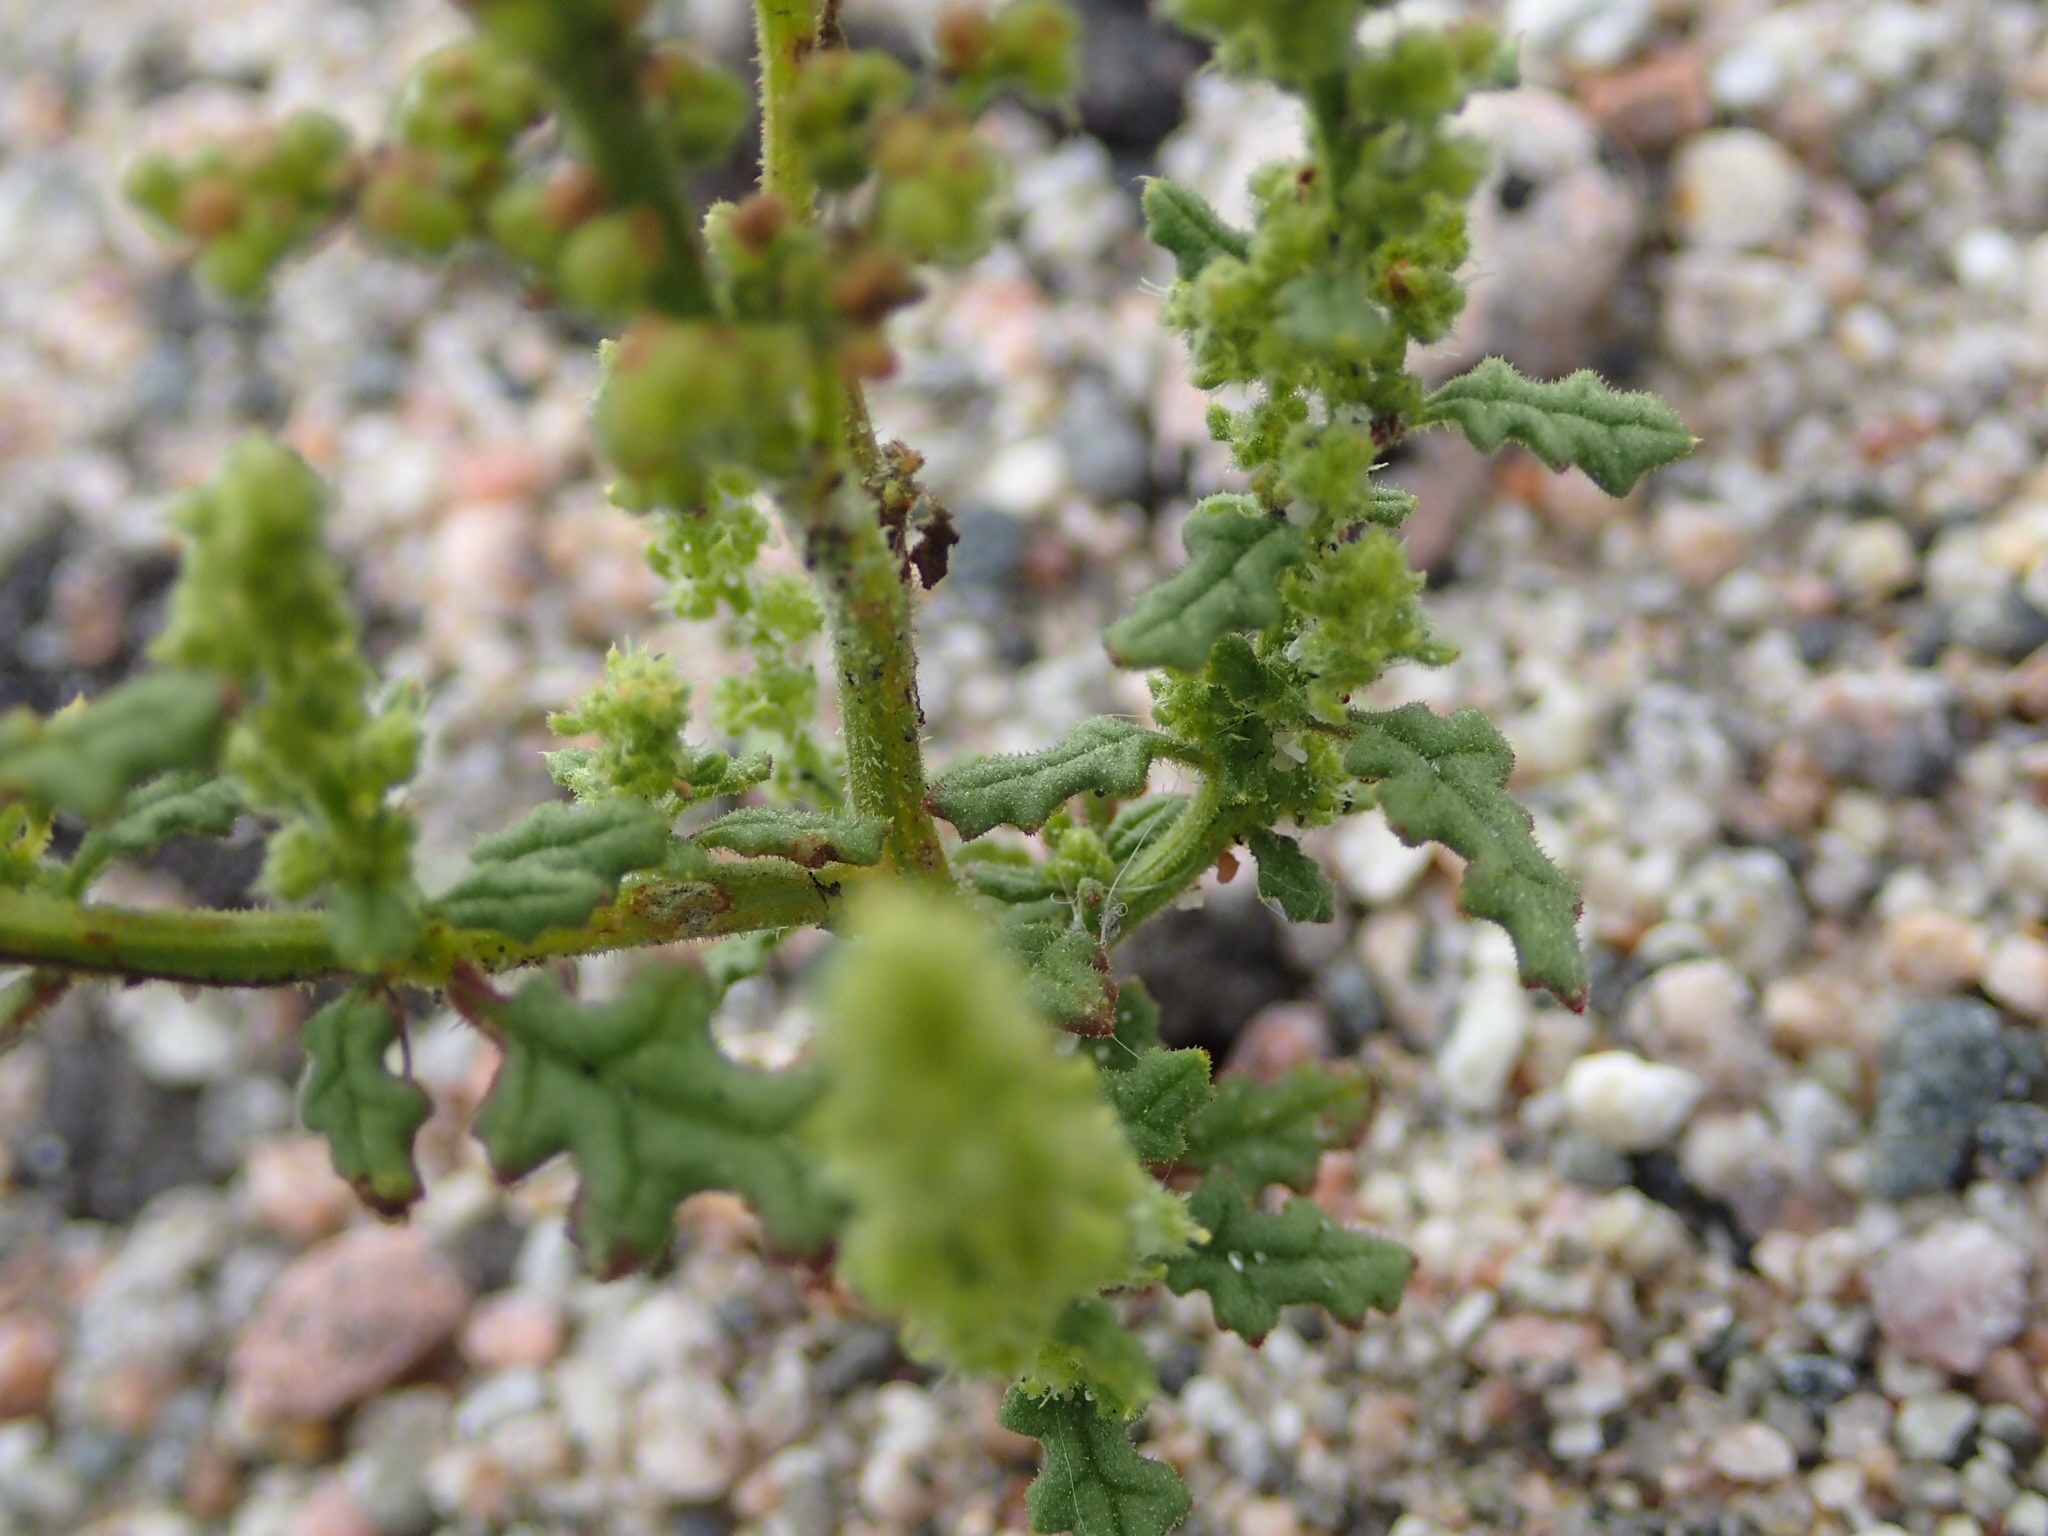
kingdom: Plantae
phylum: Tracheophyta
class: Magnoliopsida
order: Caryophyllales
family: Amaranthaceae
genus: Dysphania
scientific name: Dysphania botrys
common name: Feather-geranium
